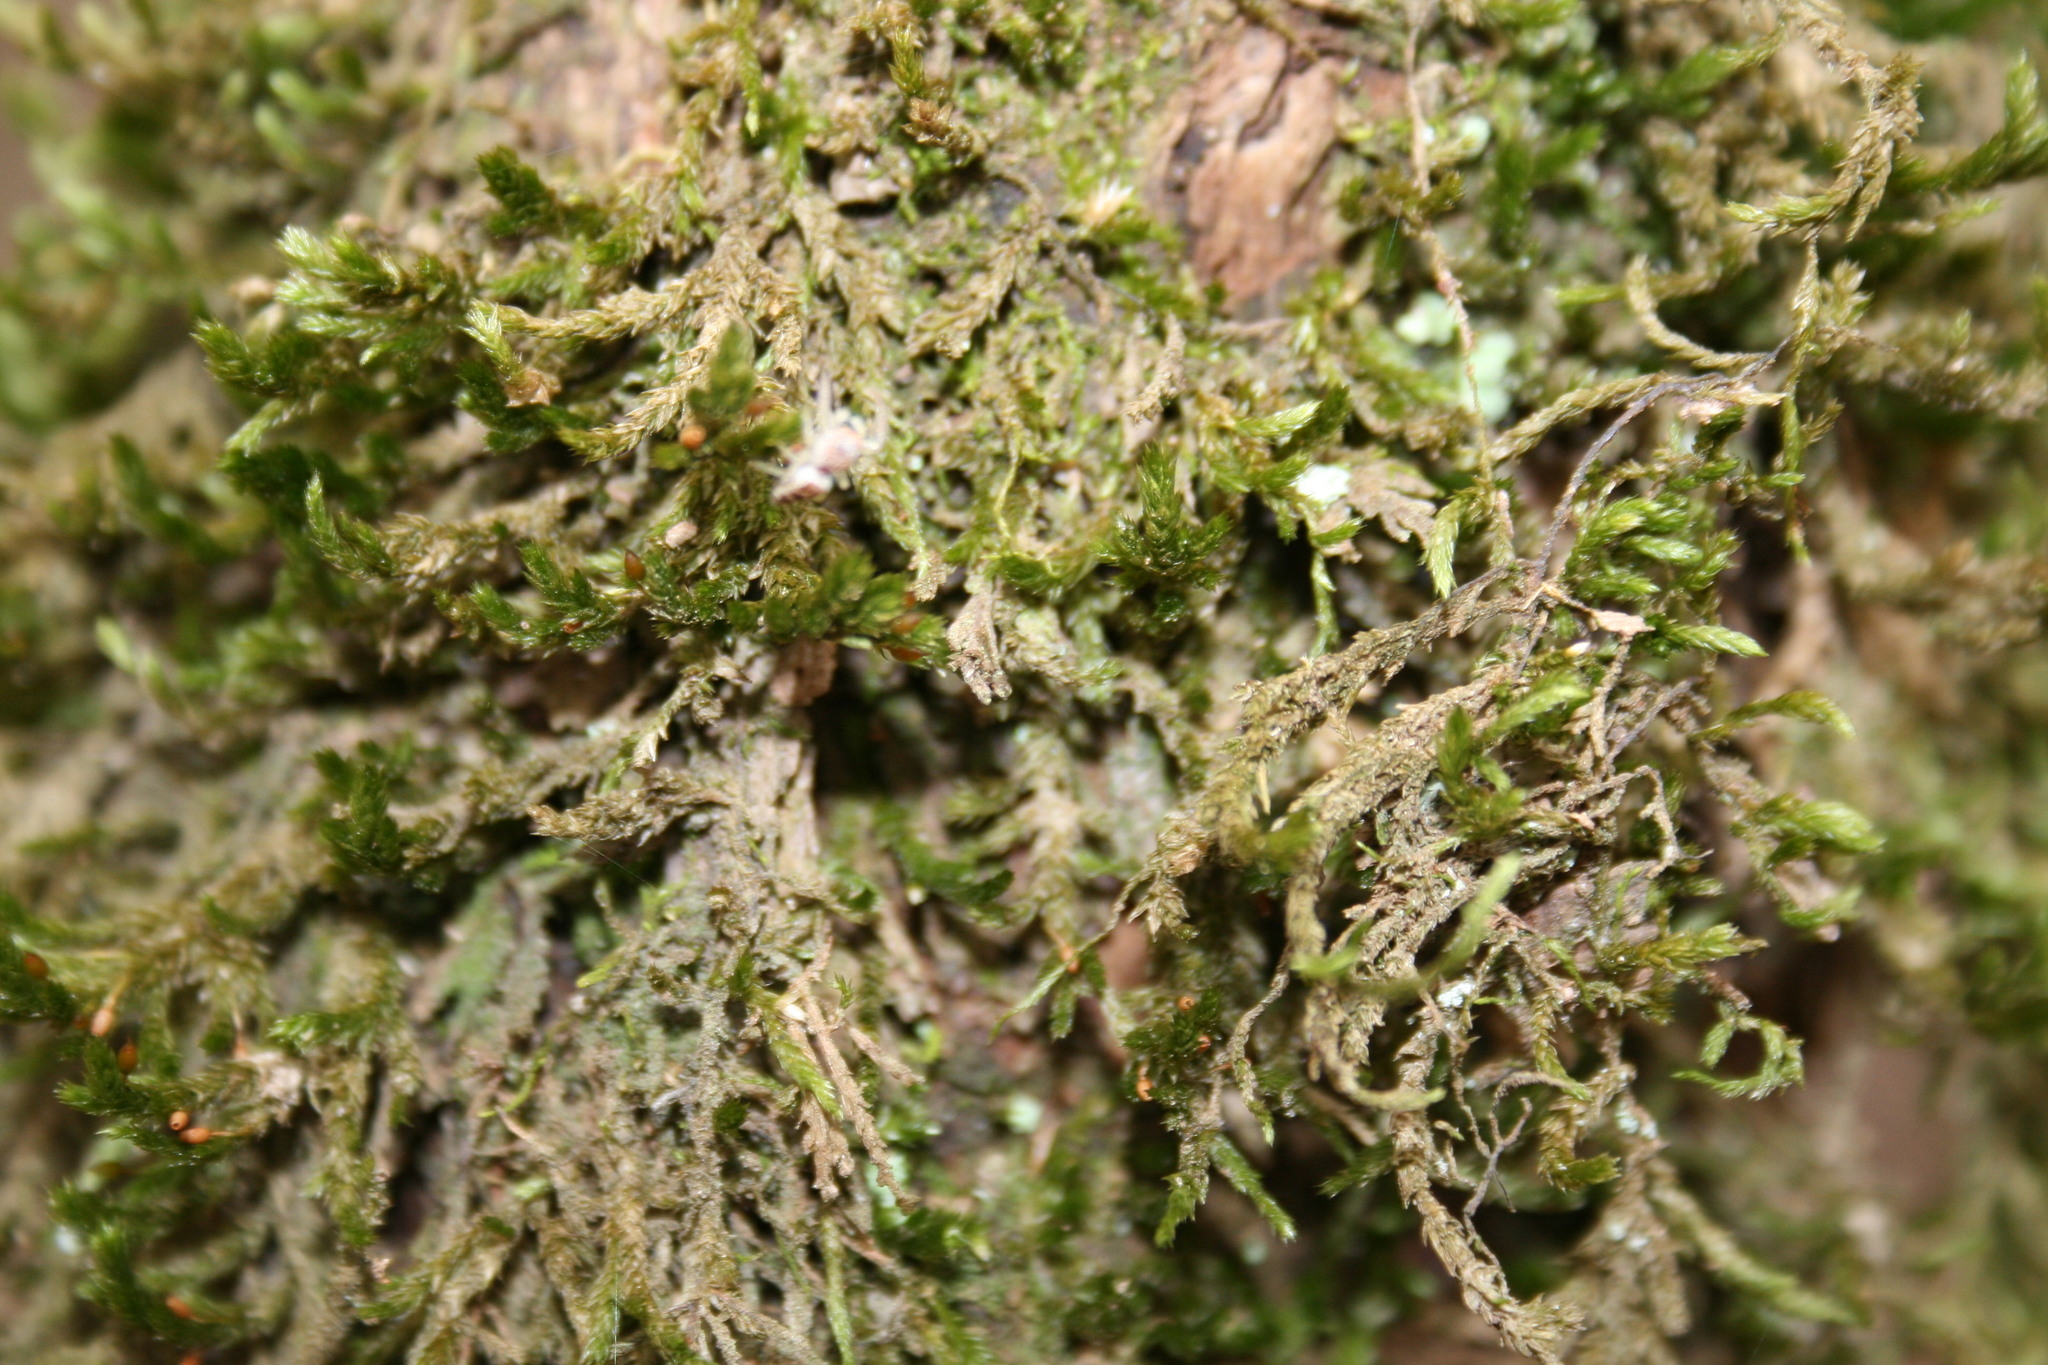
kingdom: Plantae
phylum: Bryophyta
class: Bryopsida
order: Hypnales
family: Neckeraceae
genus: Forsstroemia
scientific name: Forsstroemia trichomitria
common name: Fan moss
